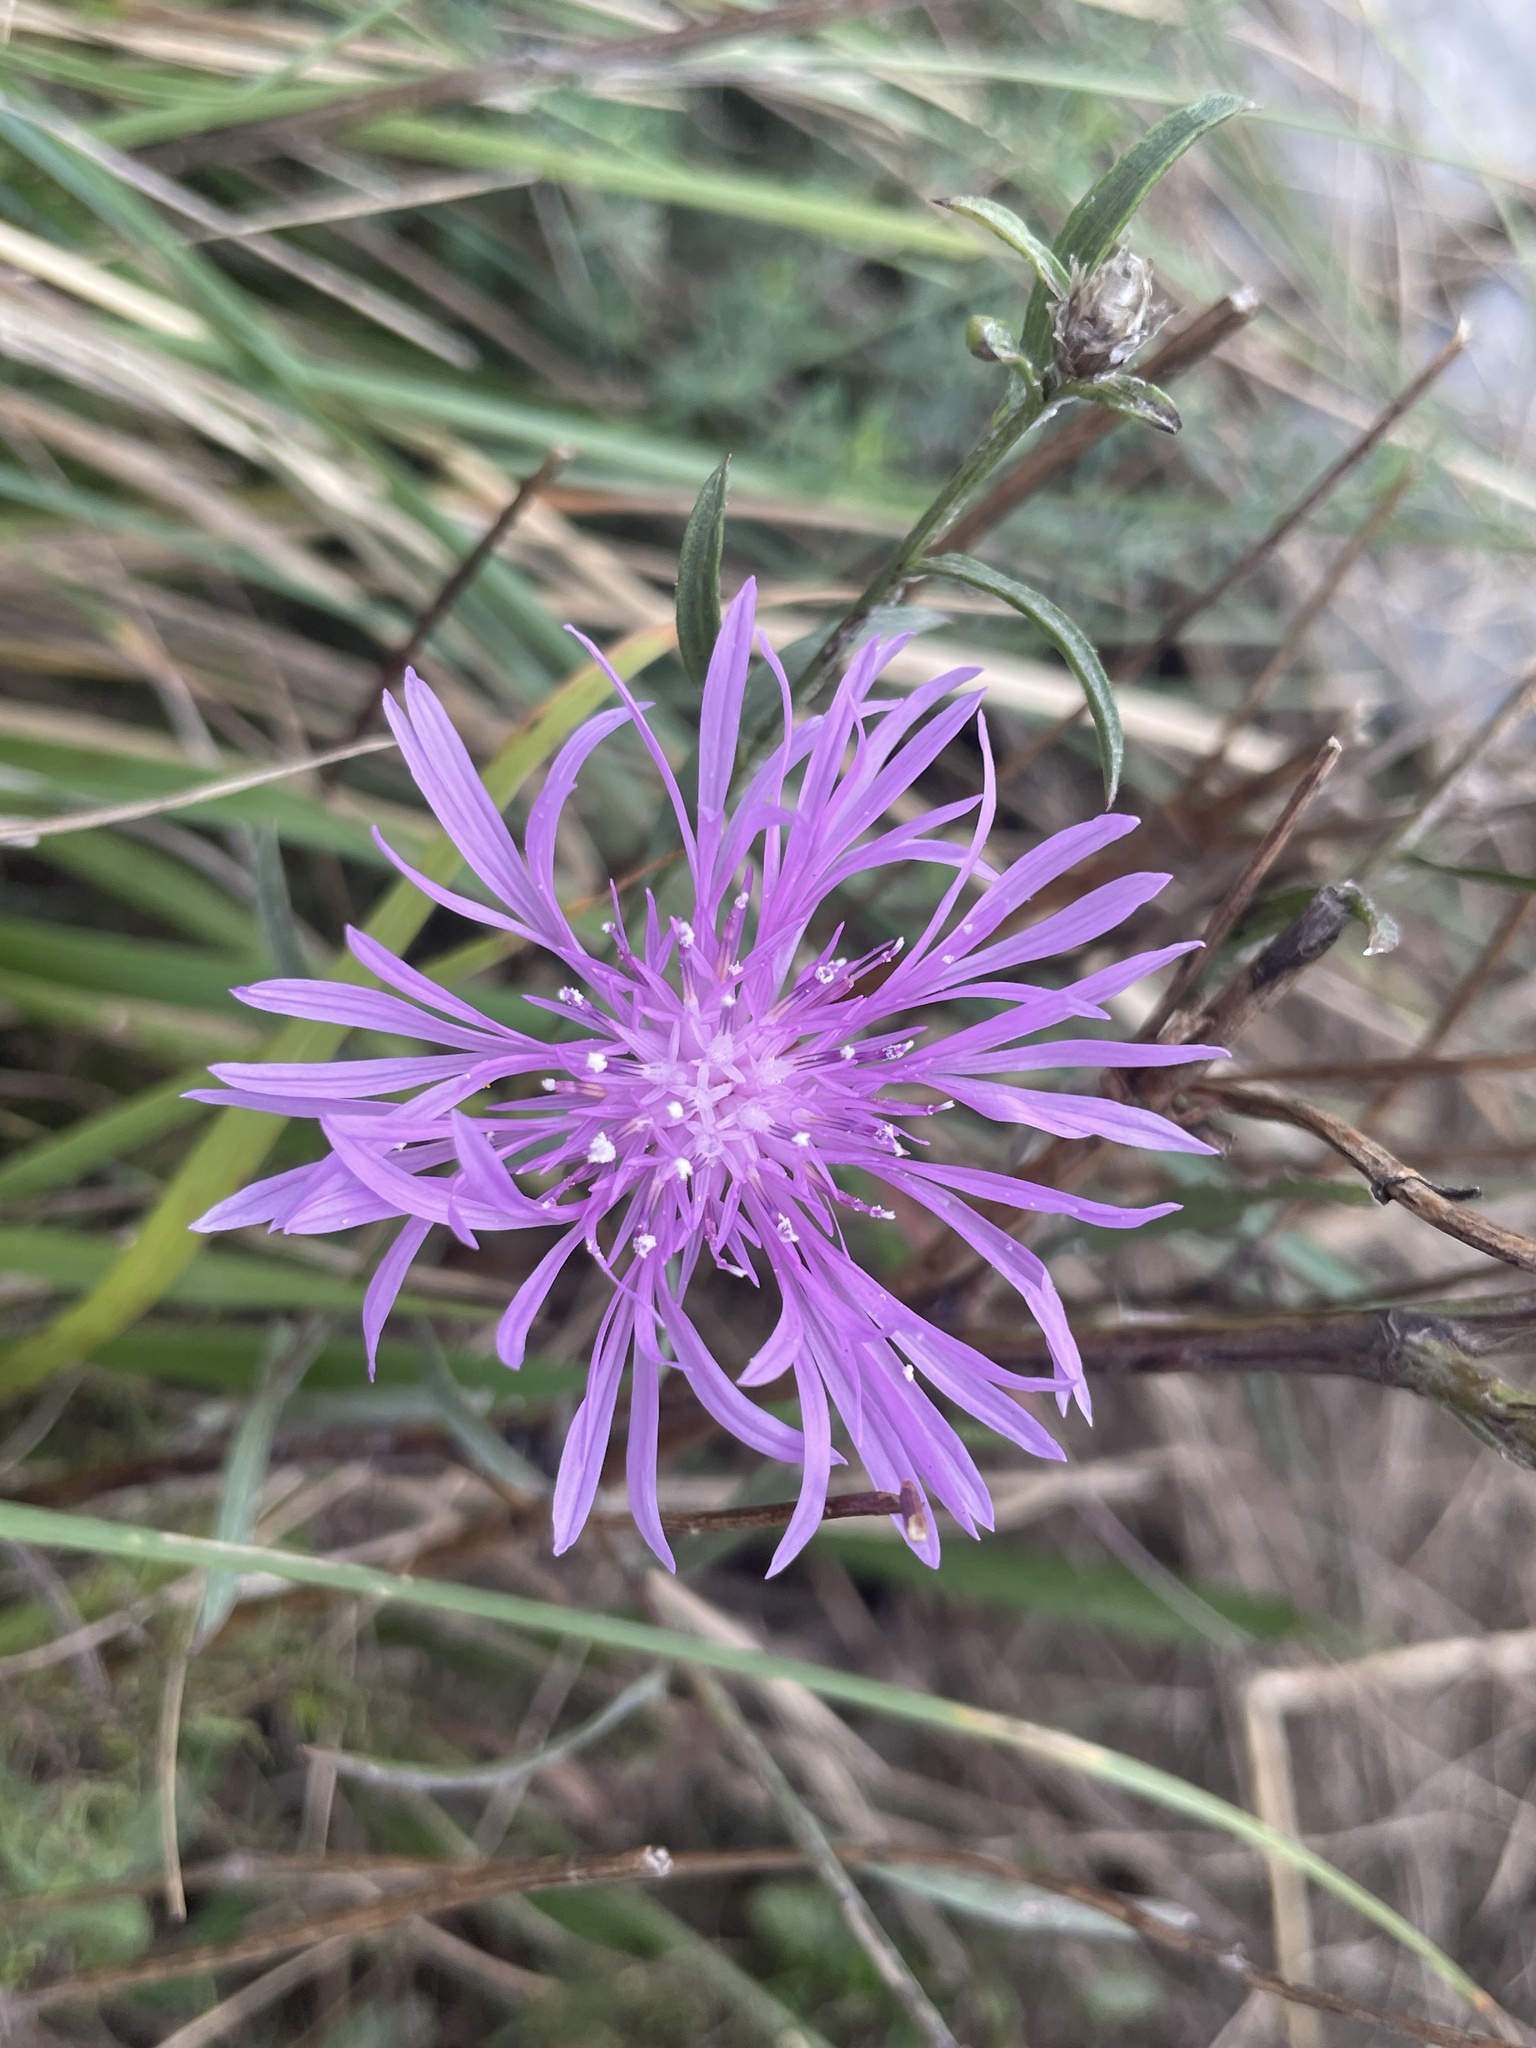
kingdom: Plantae
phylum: Tracheophyta
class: Magnoliopsida
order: Asterales
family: Asteraceae
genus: Centaurea
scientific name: Centaurea nigrescens
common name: Tyrol knapweed
